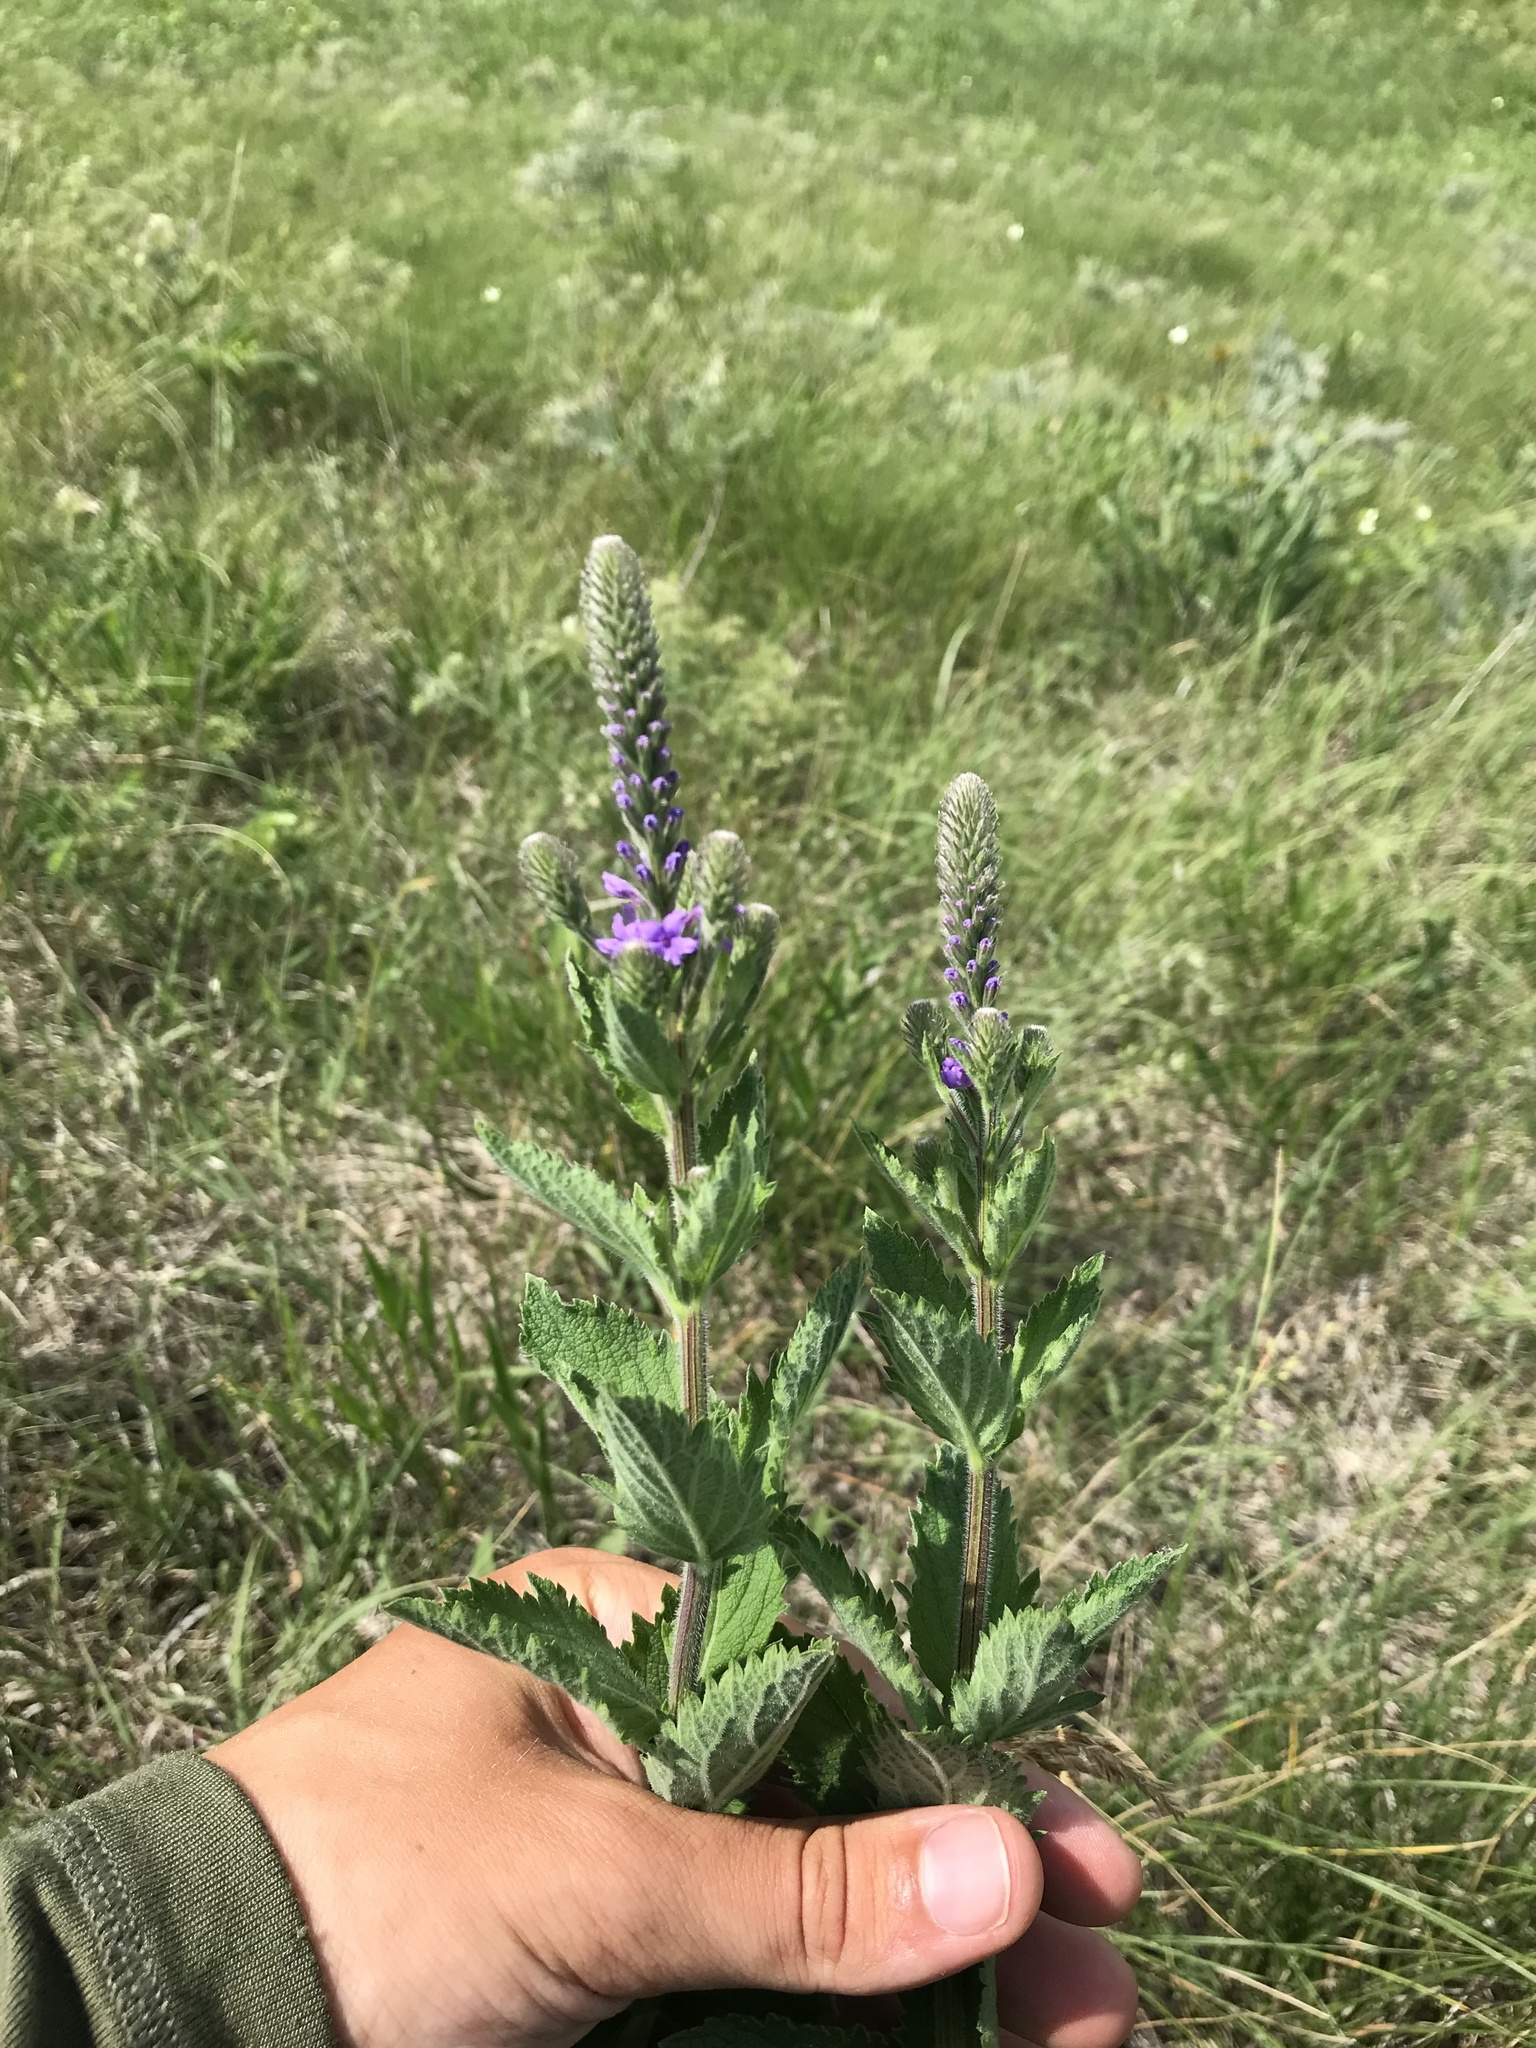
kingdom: Plantae
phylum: Tracheophyta
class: Magnoliopsida
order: Lamiales
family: Verbenaceae
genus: Verbena
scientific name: Verbena stricta
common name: Hoary vervain
